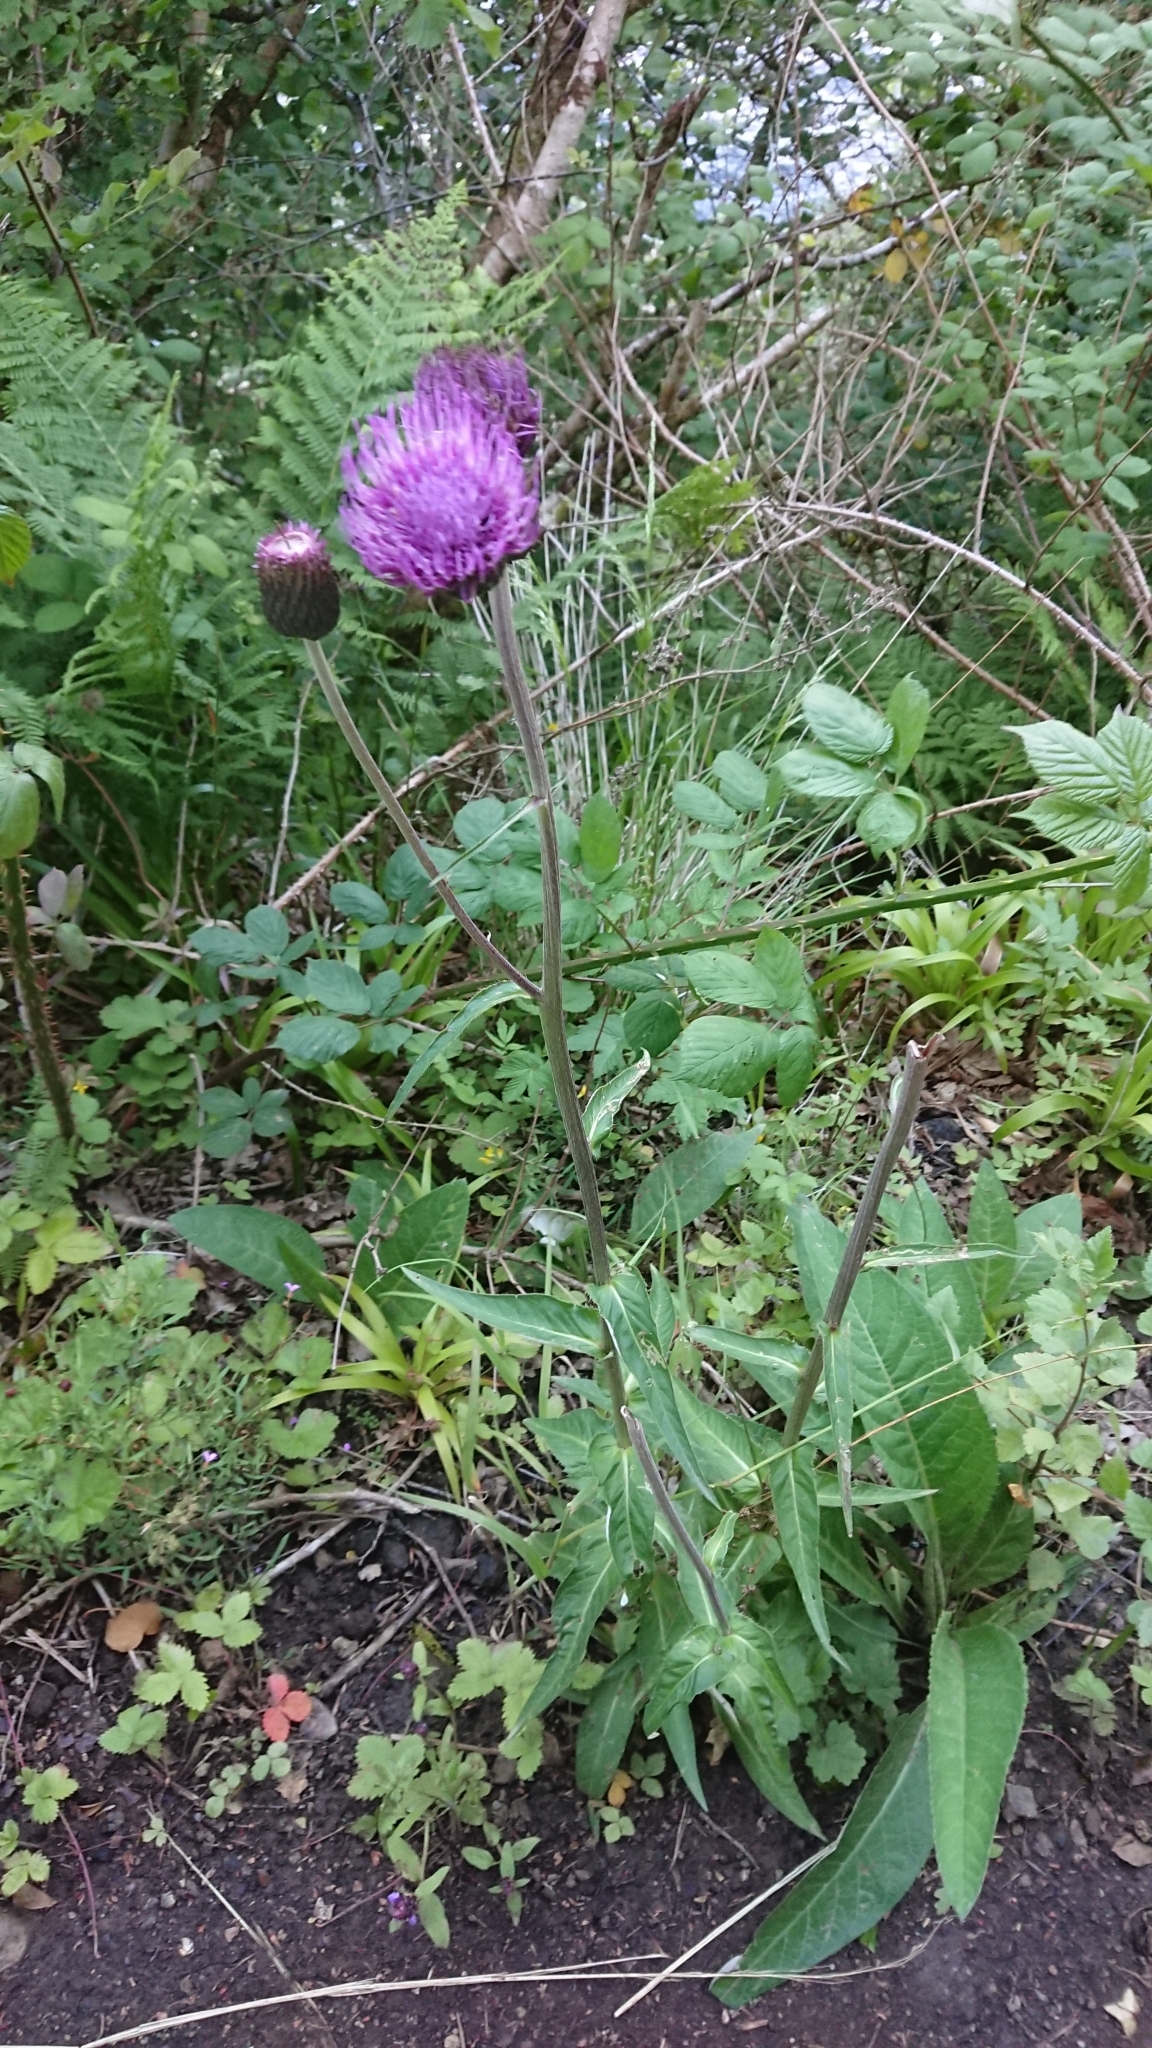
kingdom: Plantae
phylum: Tracheophyta
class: Magnoliopsida
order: Asterales
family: Asteraceae
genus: Cirsium
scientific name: Cirsium heterophyllum
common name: Melancholy thistle
